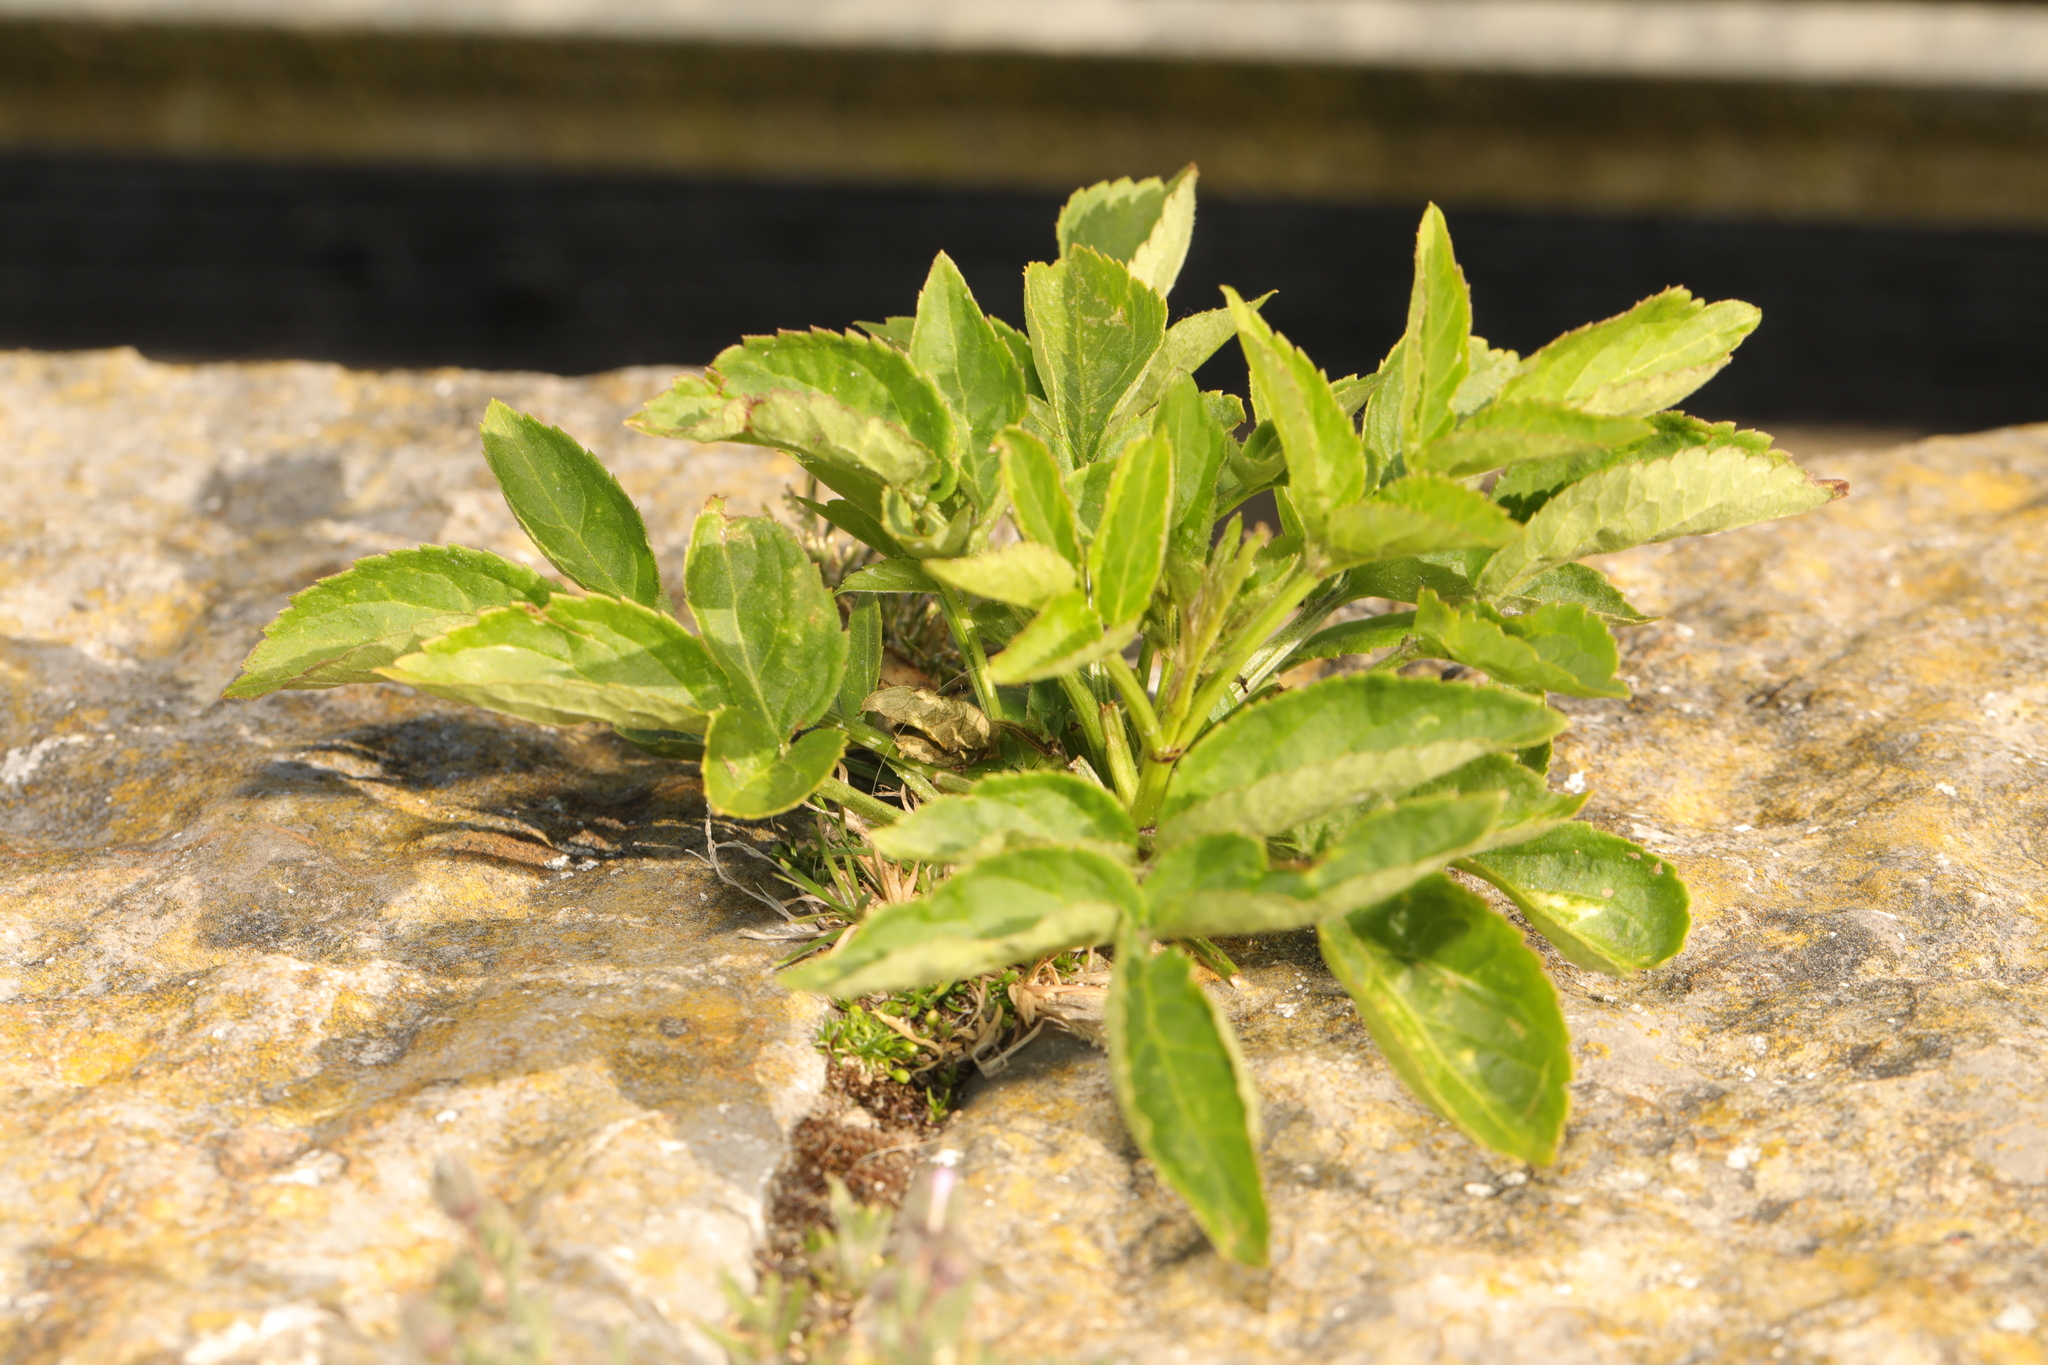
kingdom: Plantae
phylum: Tracheophyta
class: Magnoliopsida
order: Dipsacales
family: Viburnaceae
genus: Sambucus
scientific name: Sambucus nigra
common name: Elder
